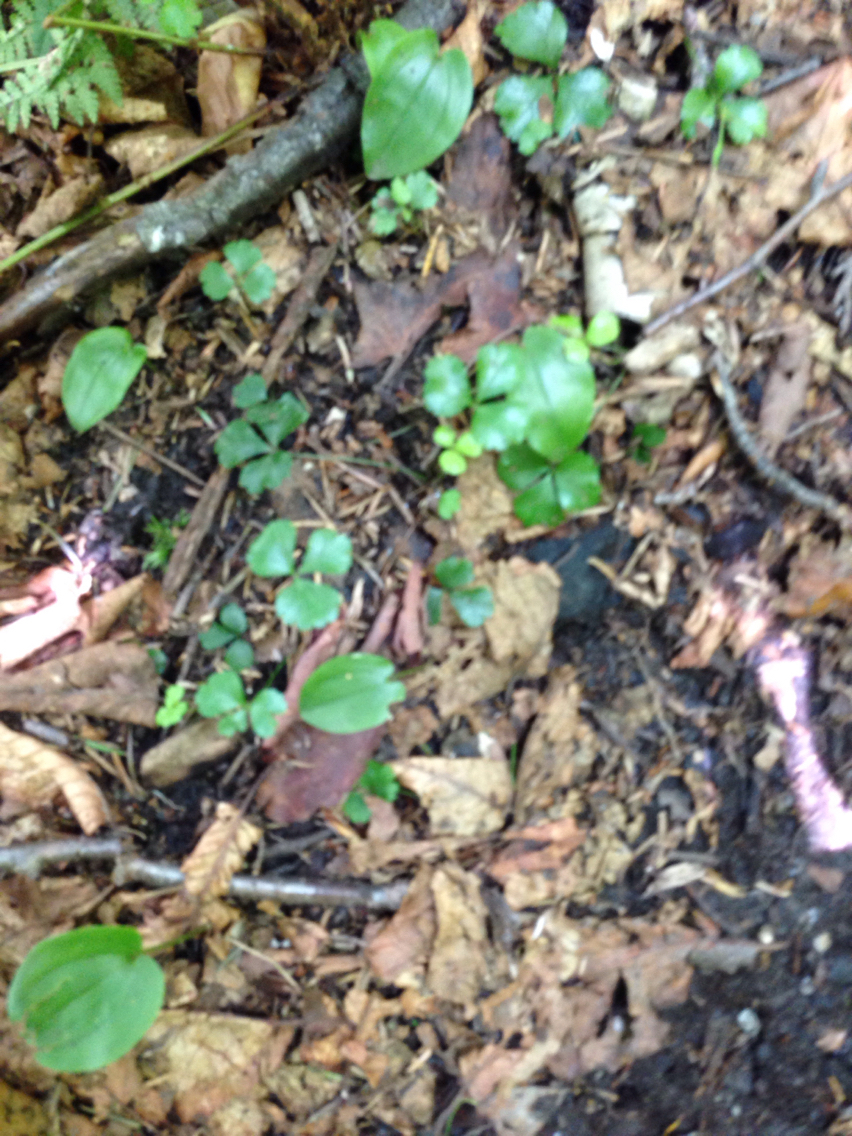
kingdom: Plantae
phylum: Tracheophyta
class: Magnoliopsida
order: Ranunculales
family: Ranunculaceae
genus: Coptis
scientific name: Coptis trifolia
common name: Canker-root
